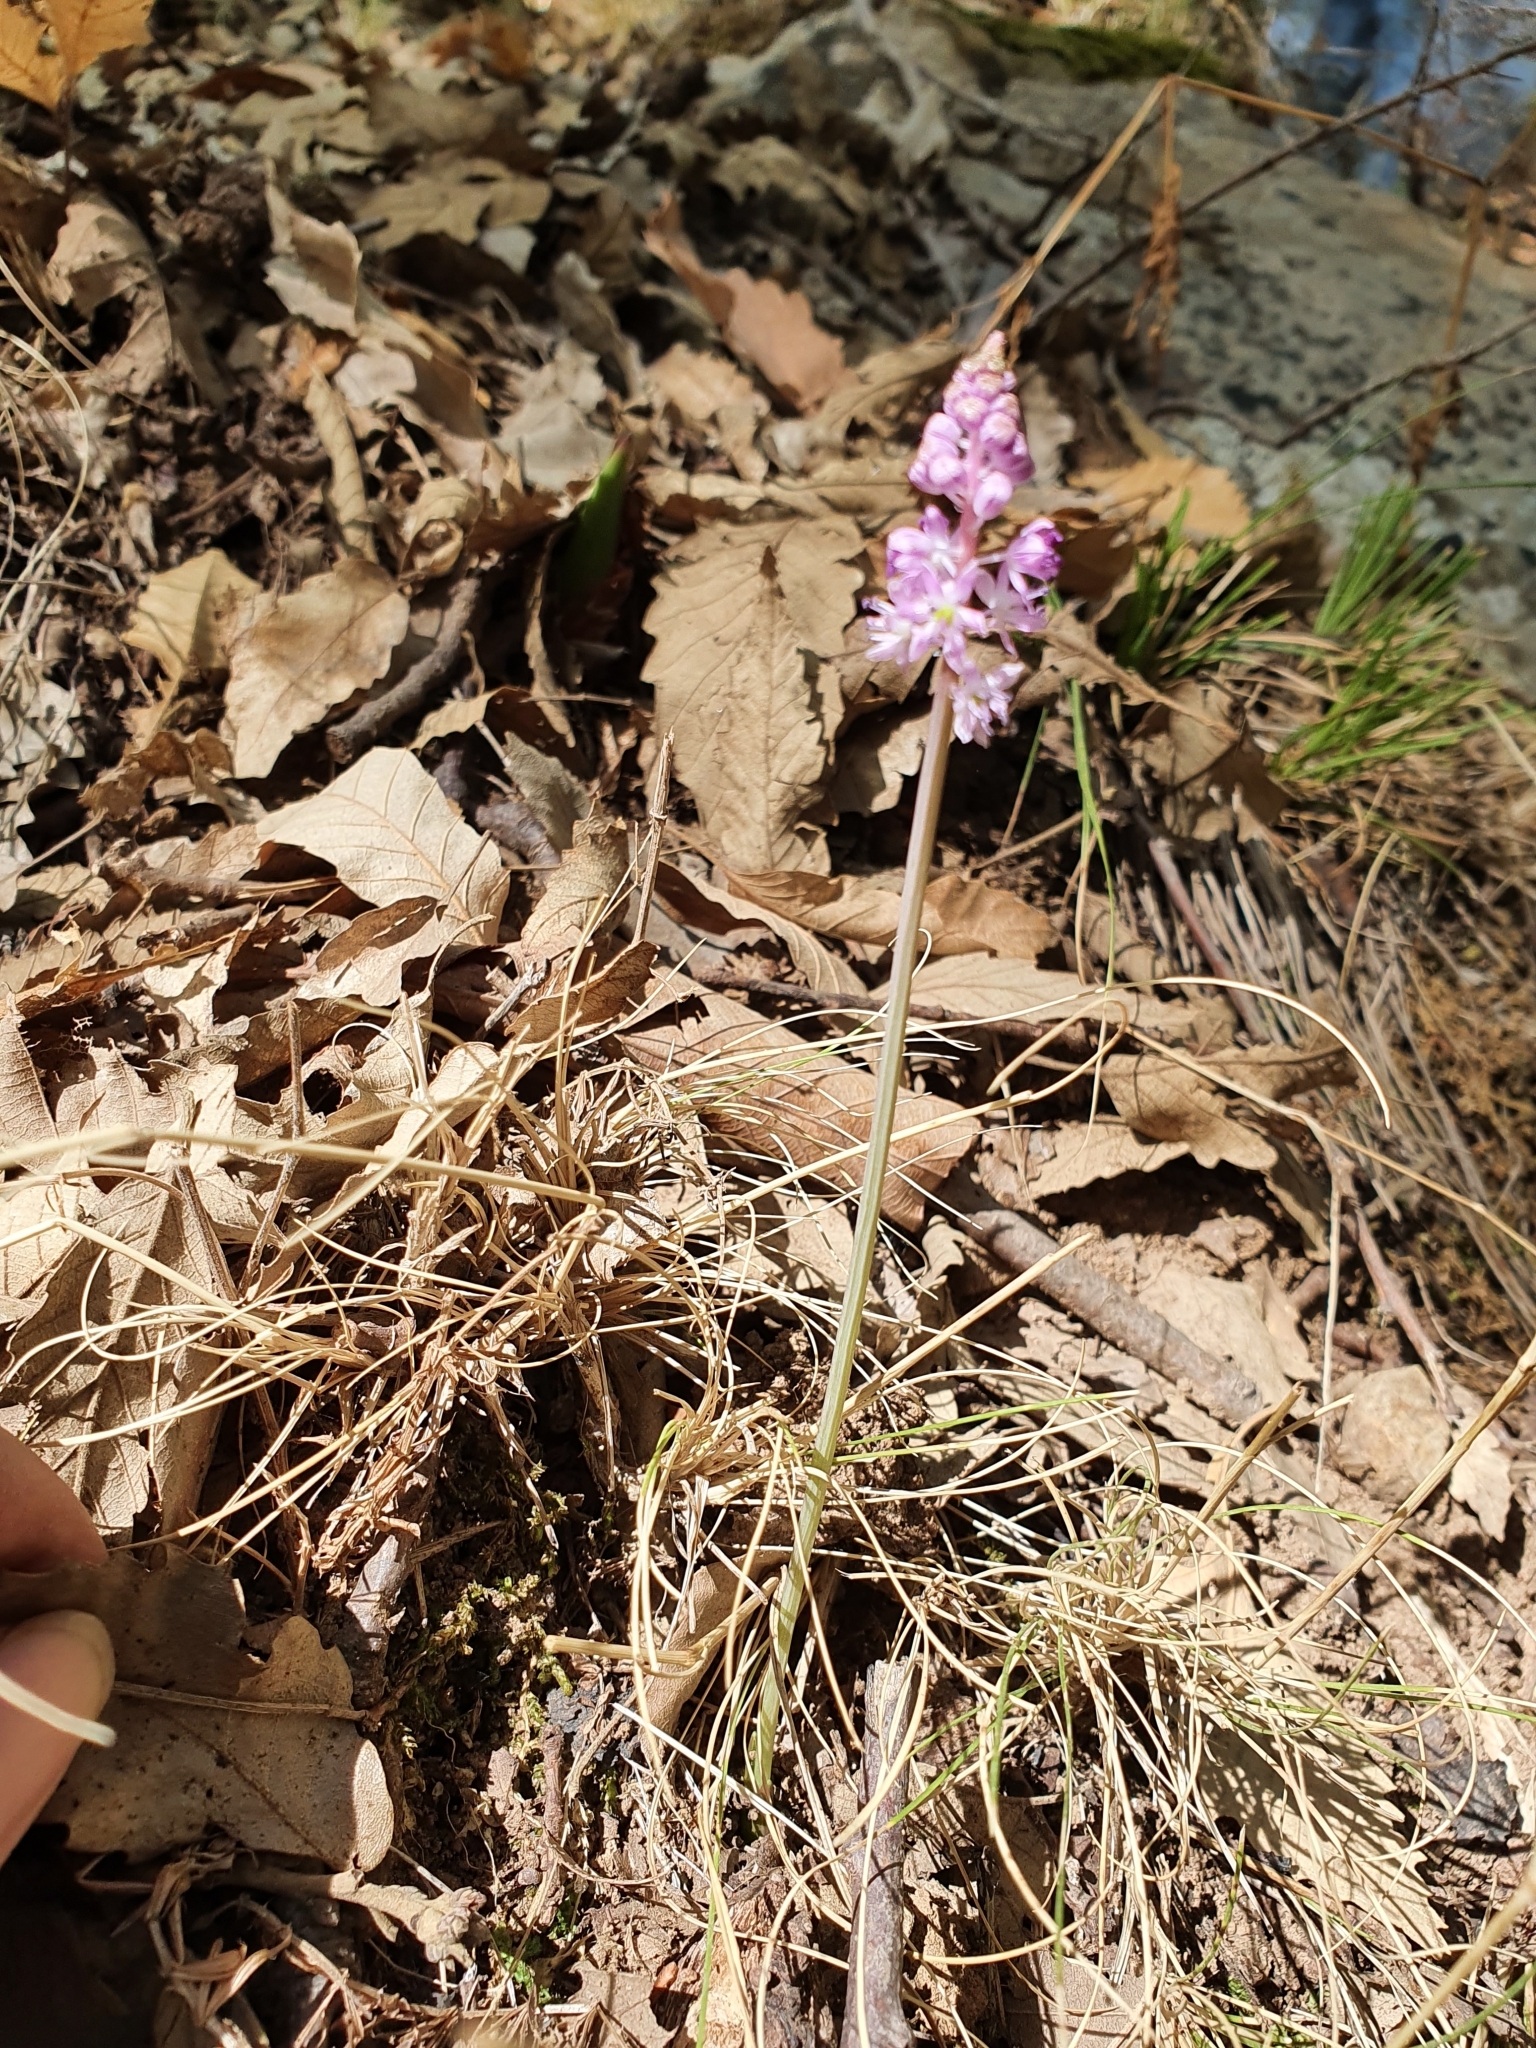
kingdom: Plantae
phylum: Tracheophyta
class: Liliopsida
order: Asparagales
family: Asparagaceae
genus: Barnardia
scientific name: Barnardia numidica
